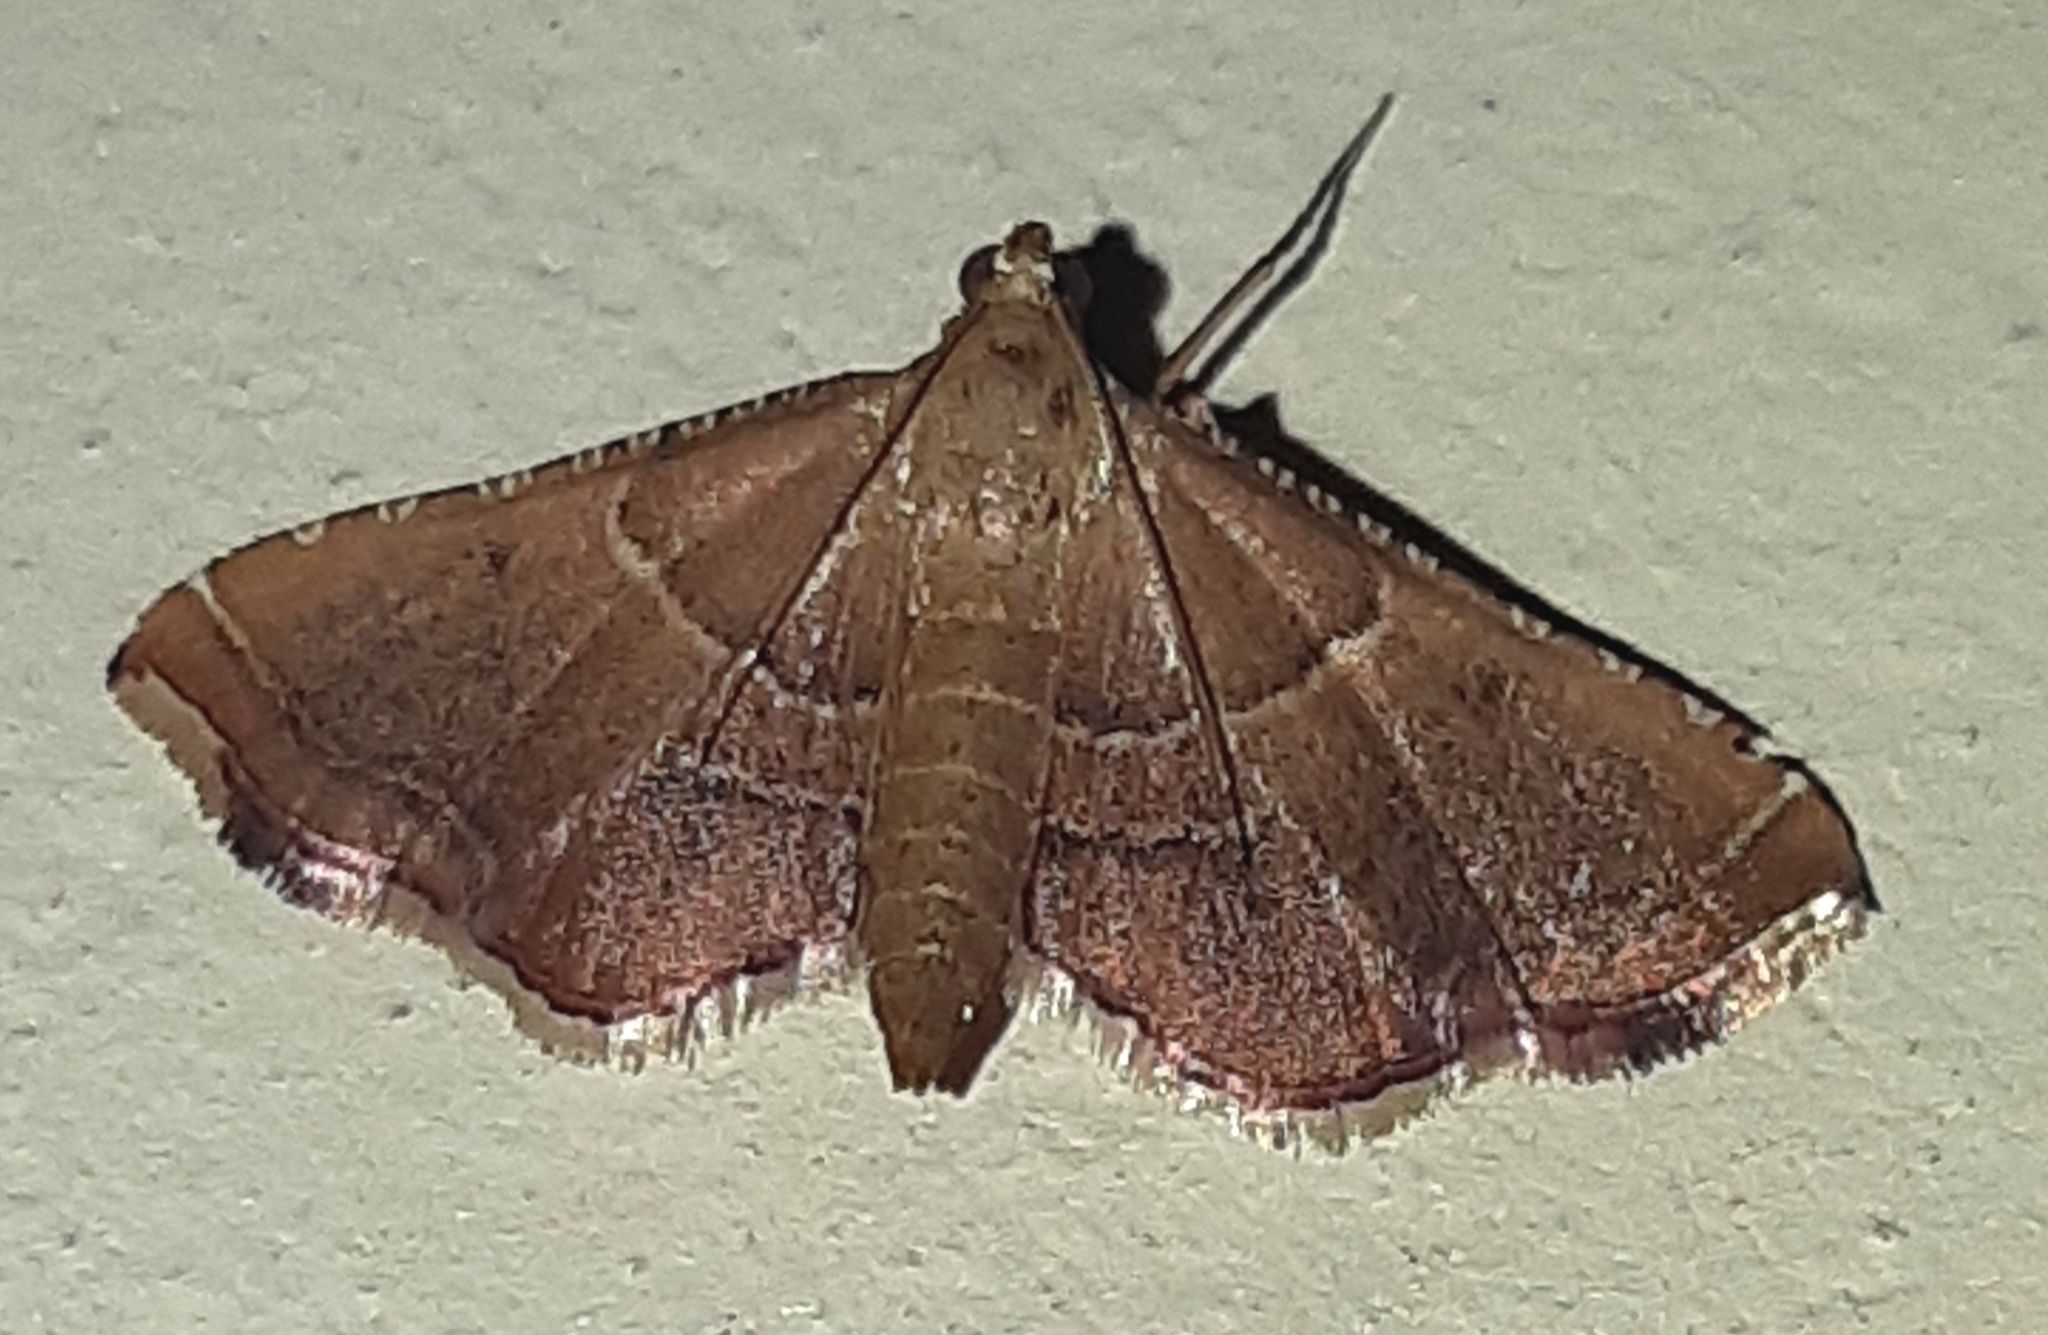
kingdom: Animalia
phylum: Arthropoda
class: Insecta
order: Lepidoptera
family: Pyralidae
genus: Endotricha
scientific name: Endotricha flammealis
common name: Rosy tabby
